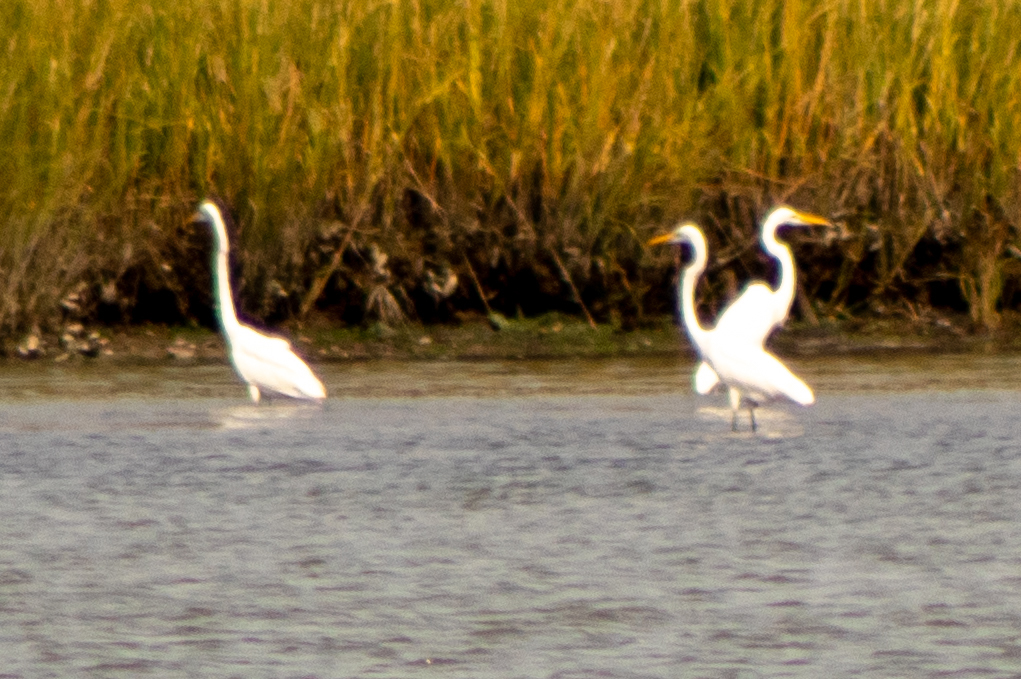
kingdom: Animalia
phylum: Chordata
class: Aves
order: Pelecaniformes
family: Ardeidae
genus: Ardea
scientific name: Ardea alba
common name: Great egret
